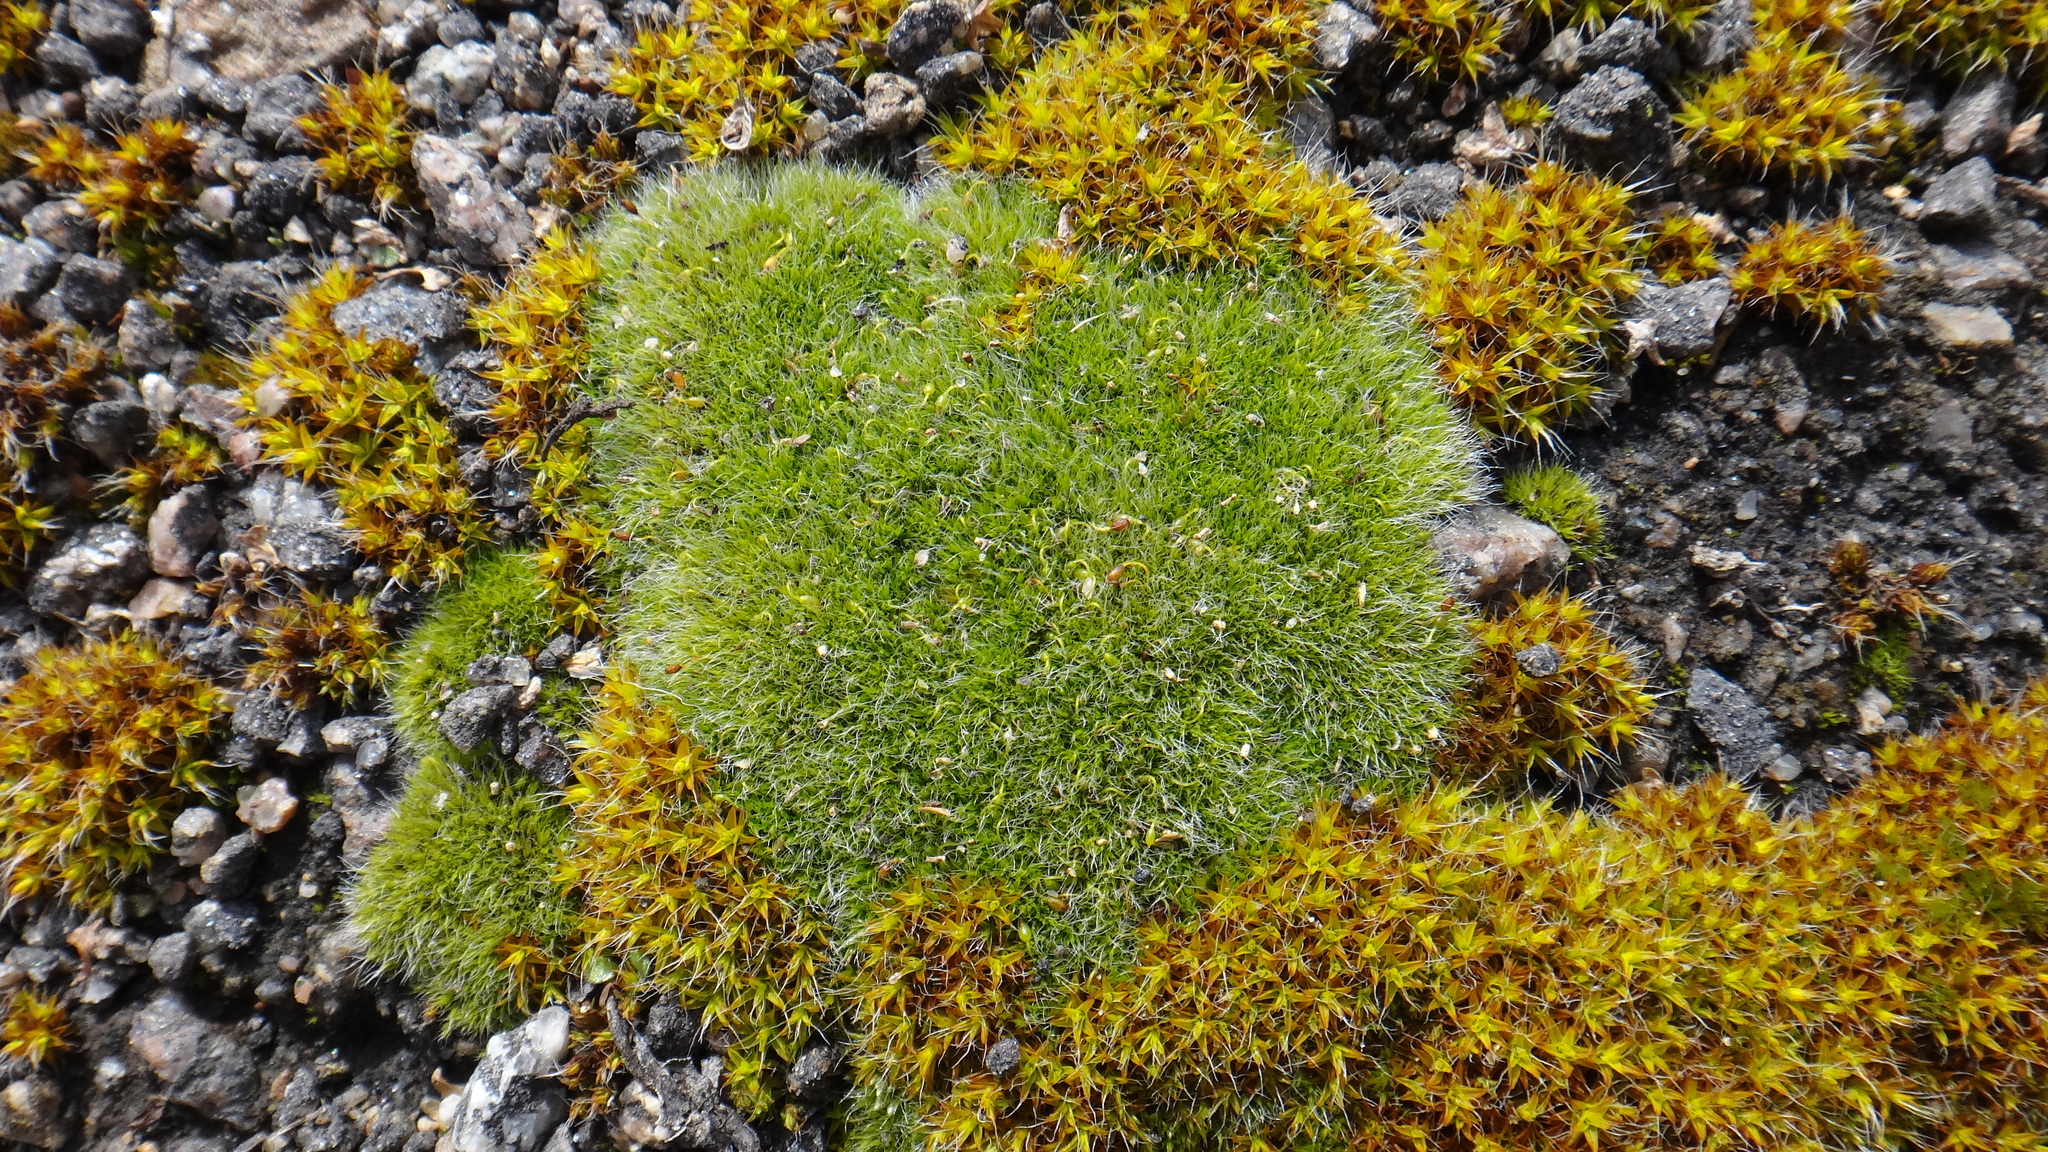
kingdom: Plantae
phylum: Bryophyta
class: Bryopsida
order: Grimmiales
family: Grimmiaceae
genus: Grimmia
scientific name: Grimmia pulvinata
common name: Grey-cushioned grimmia
